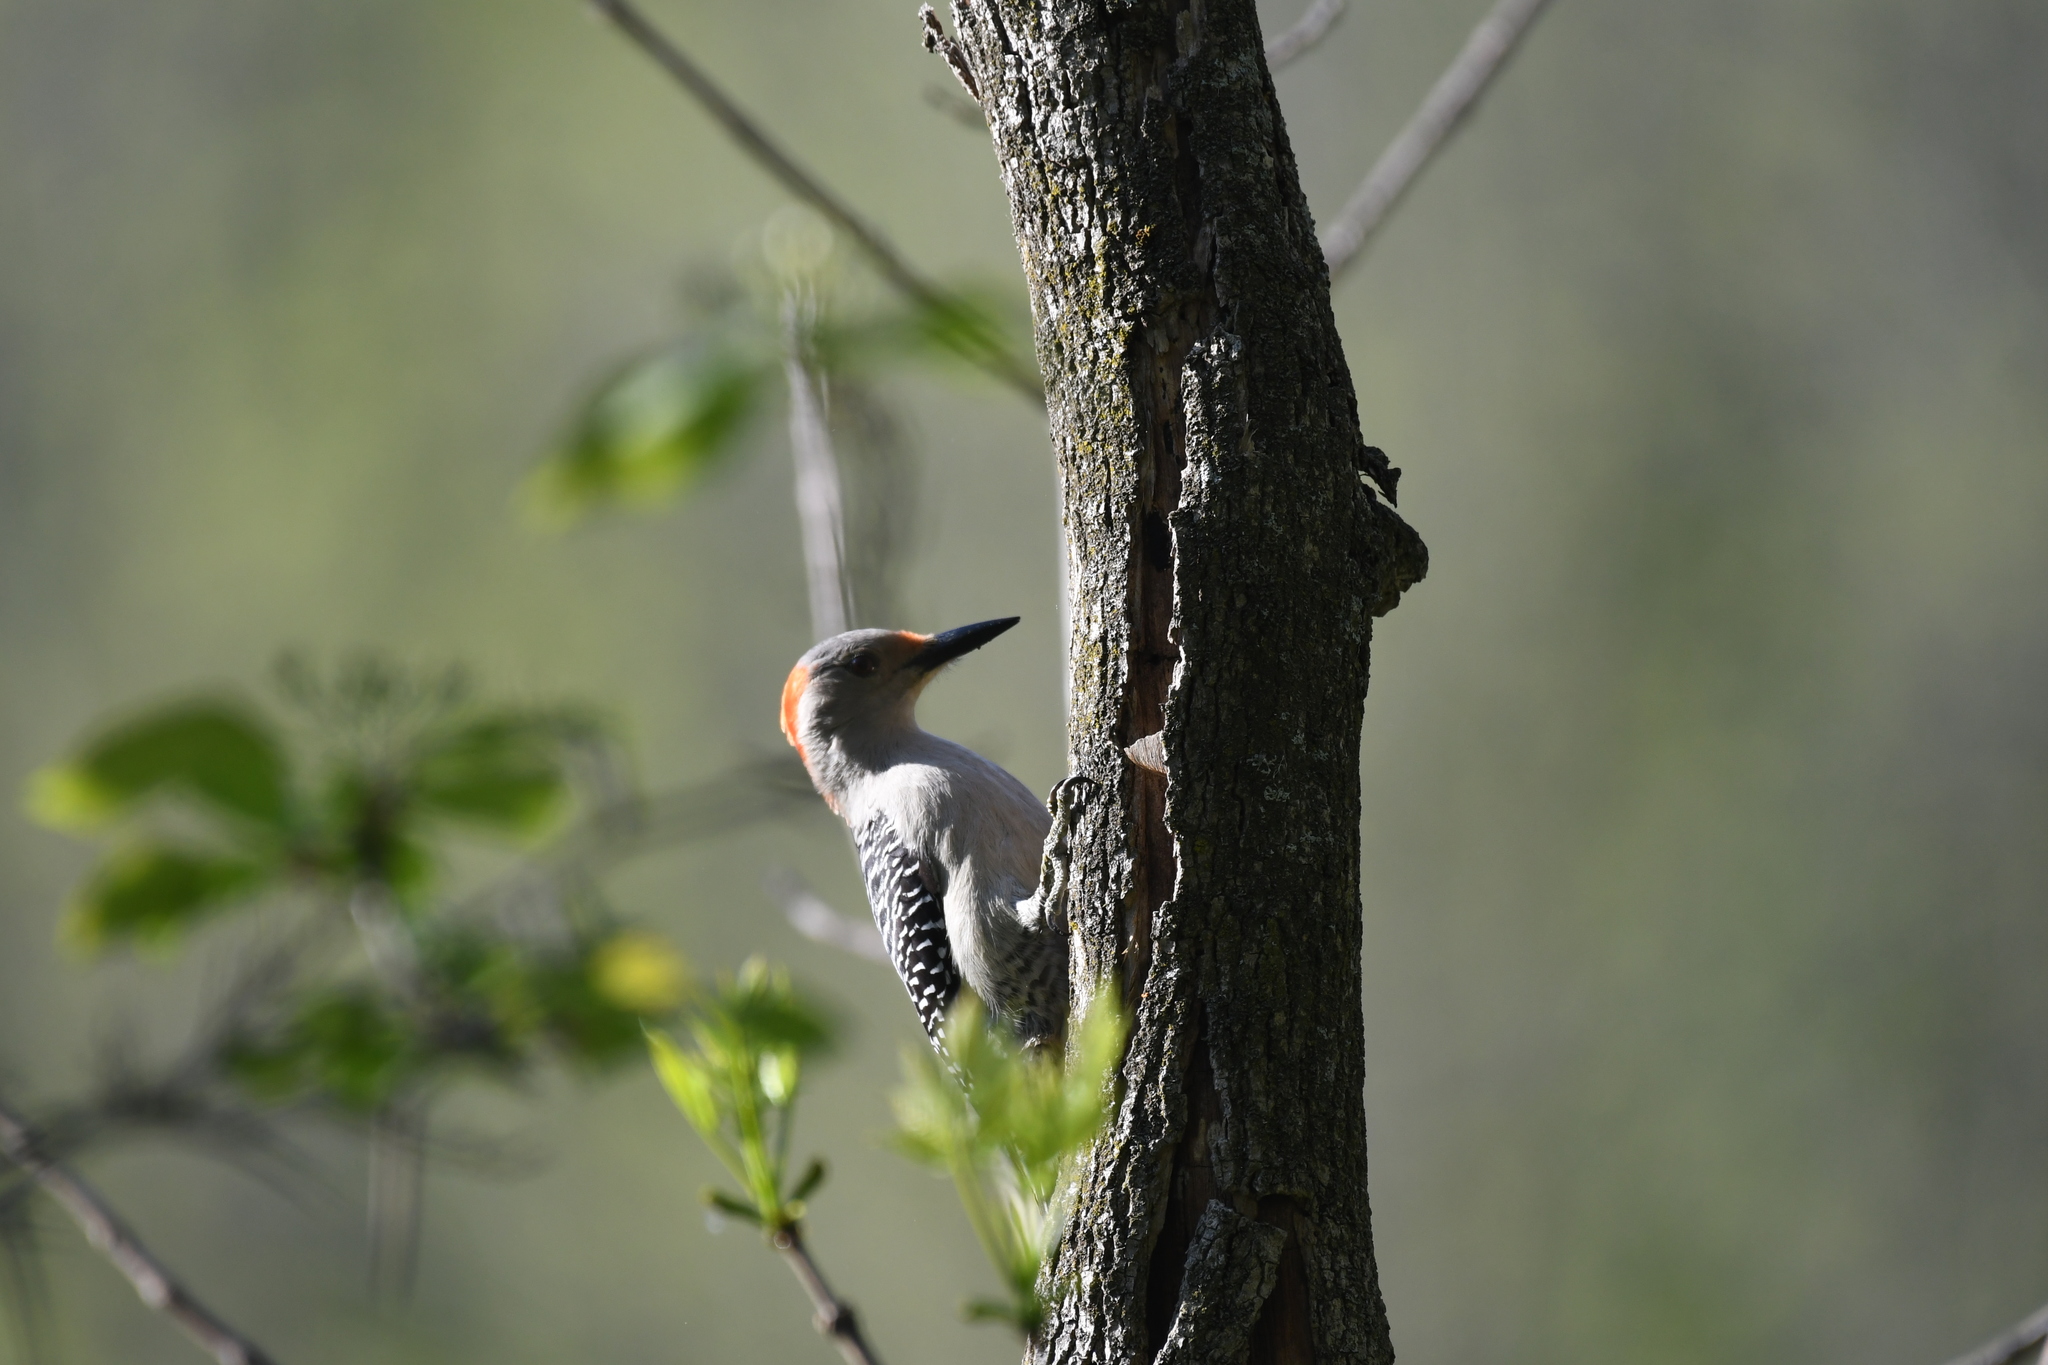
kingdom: Animalia
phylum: Chordata
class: Aves
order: Piciformes
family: Picidae
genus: Melanerpes
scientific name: Melanerpes carolinus
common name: Red-bellied woodpecker
